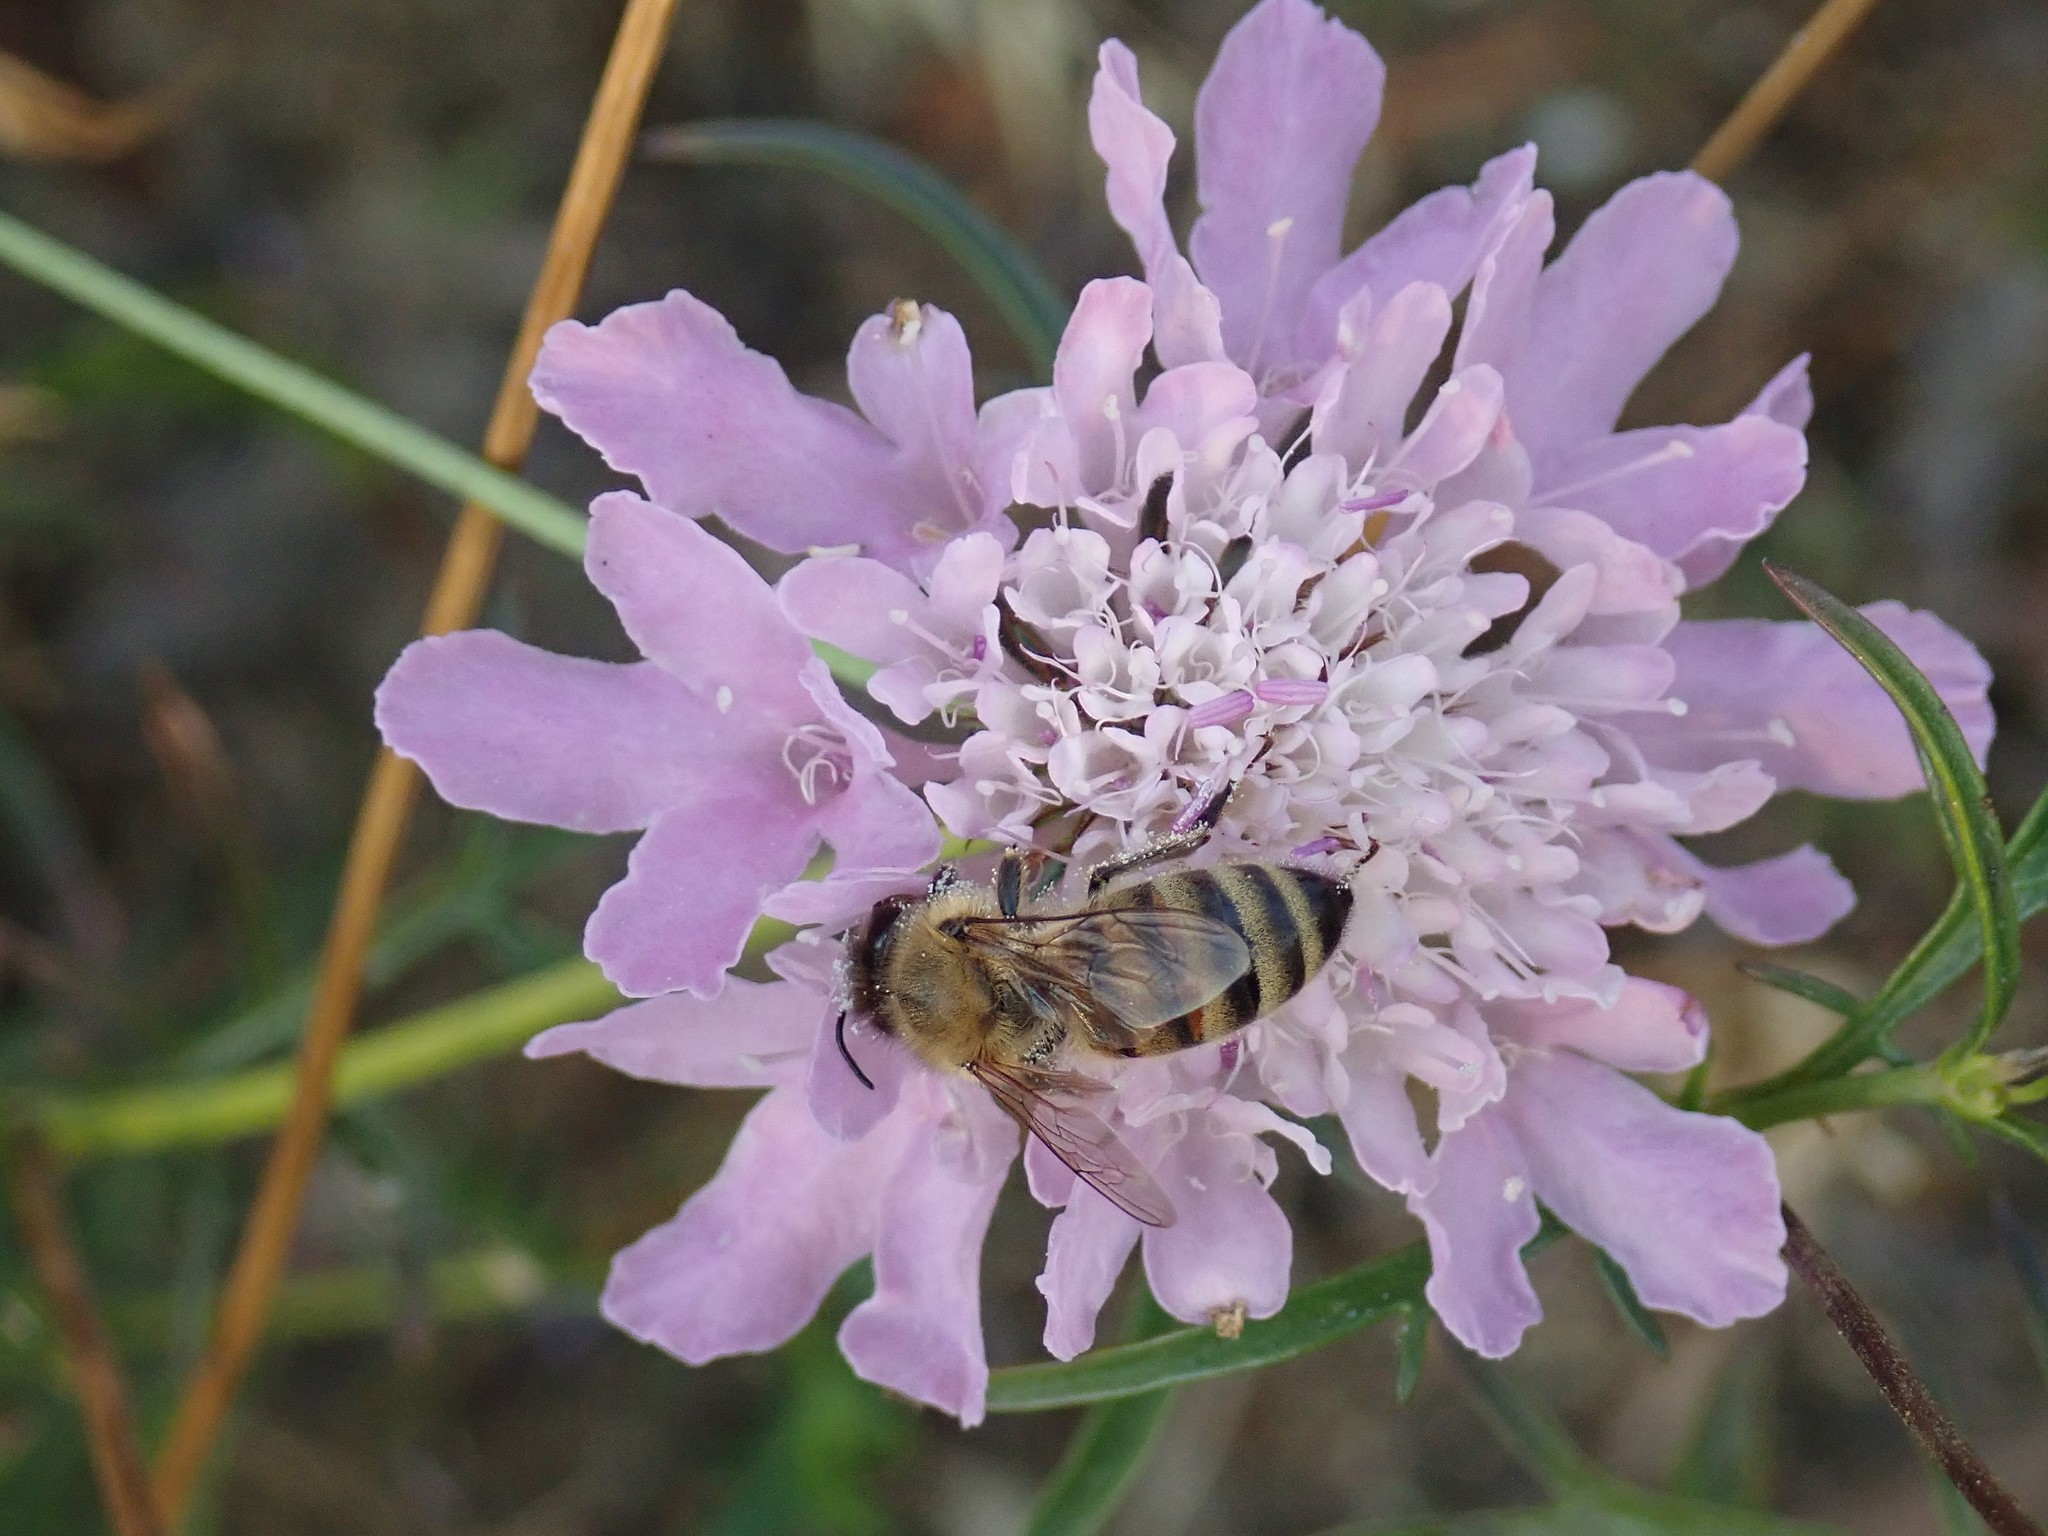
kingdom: Animalia
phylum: Arthropoda
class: Insecta
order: Hymenoptera
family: Apidae
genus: Apis
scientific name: Apis mellifera
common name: Honey bee
